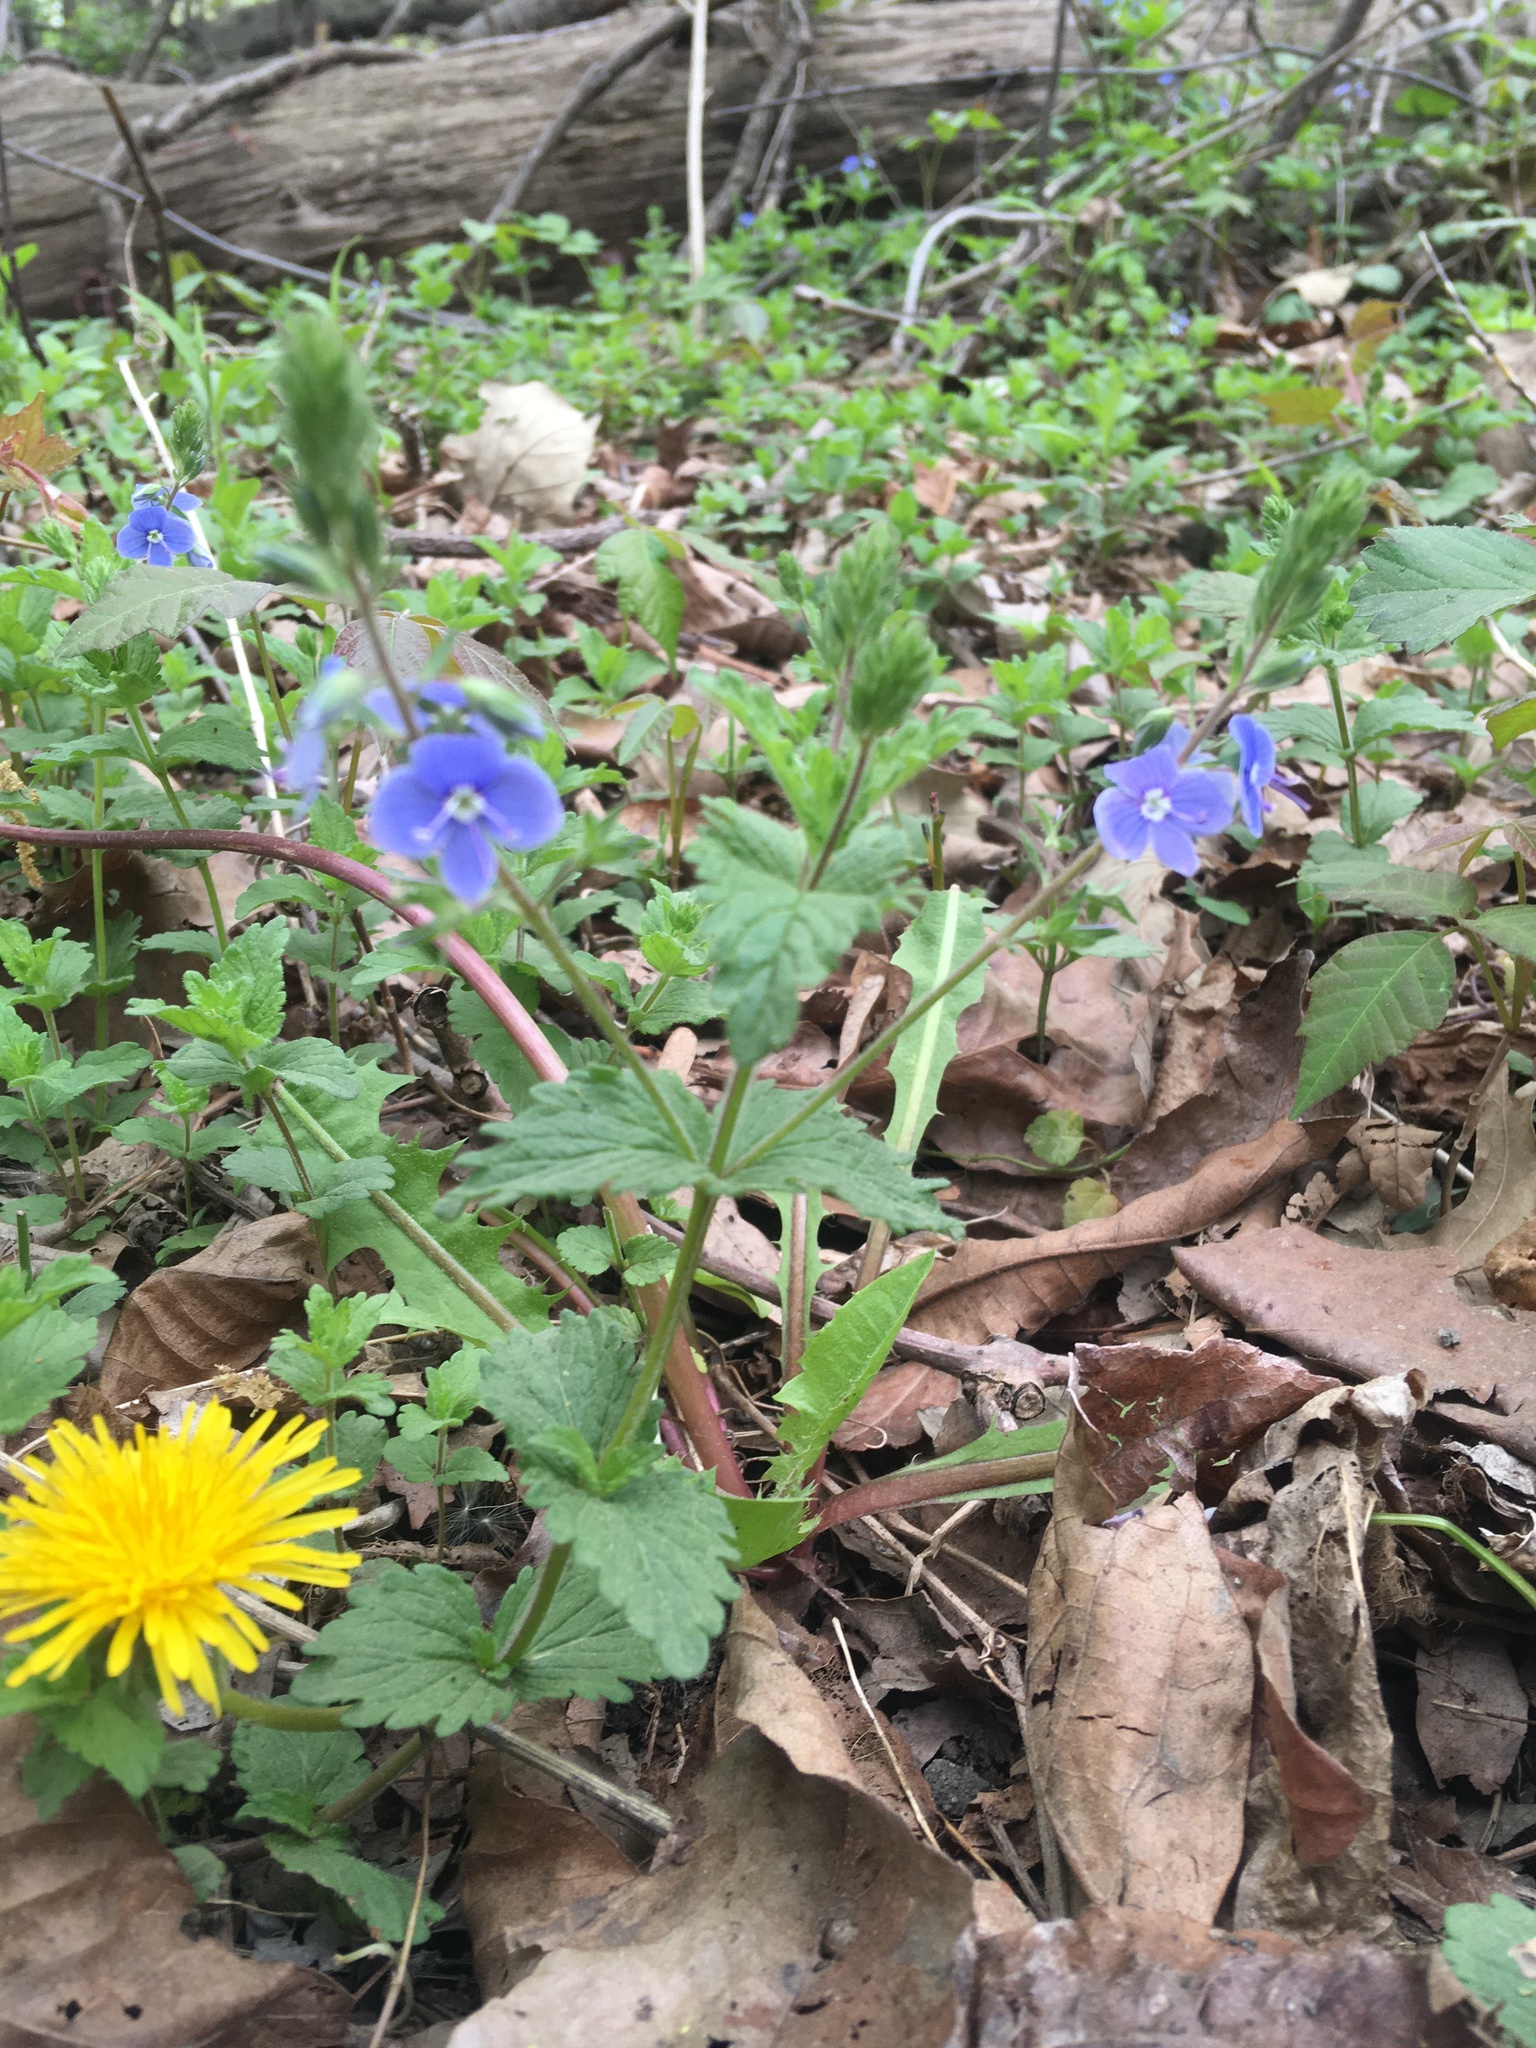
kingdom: Plantae
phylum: Tracheophyta
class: Magnoliopsida
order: Lamiales
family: Plantaginaceae
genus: Veronica
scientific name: Veronica chamaedrys
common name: Germander speedwell
